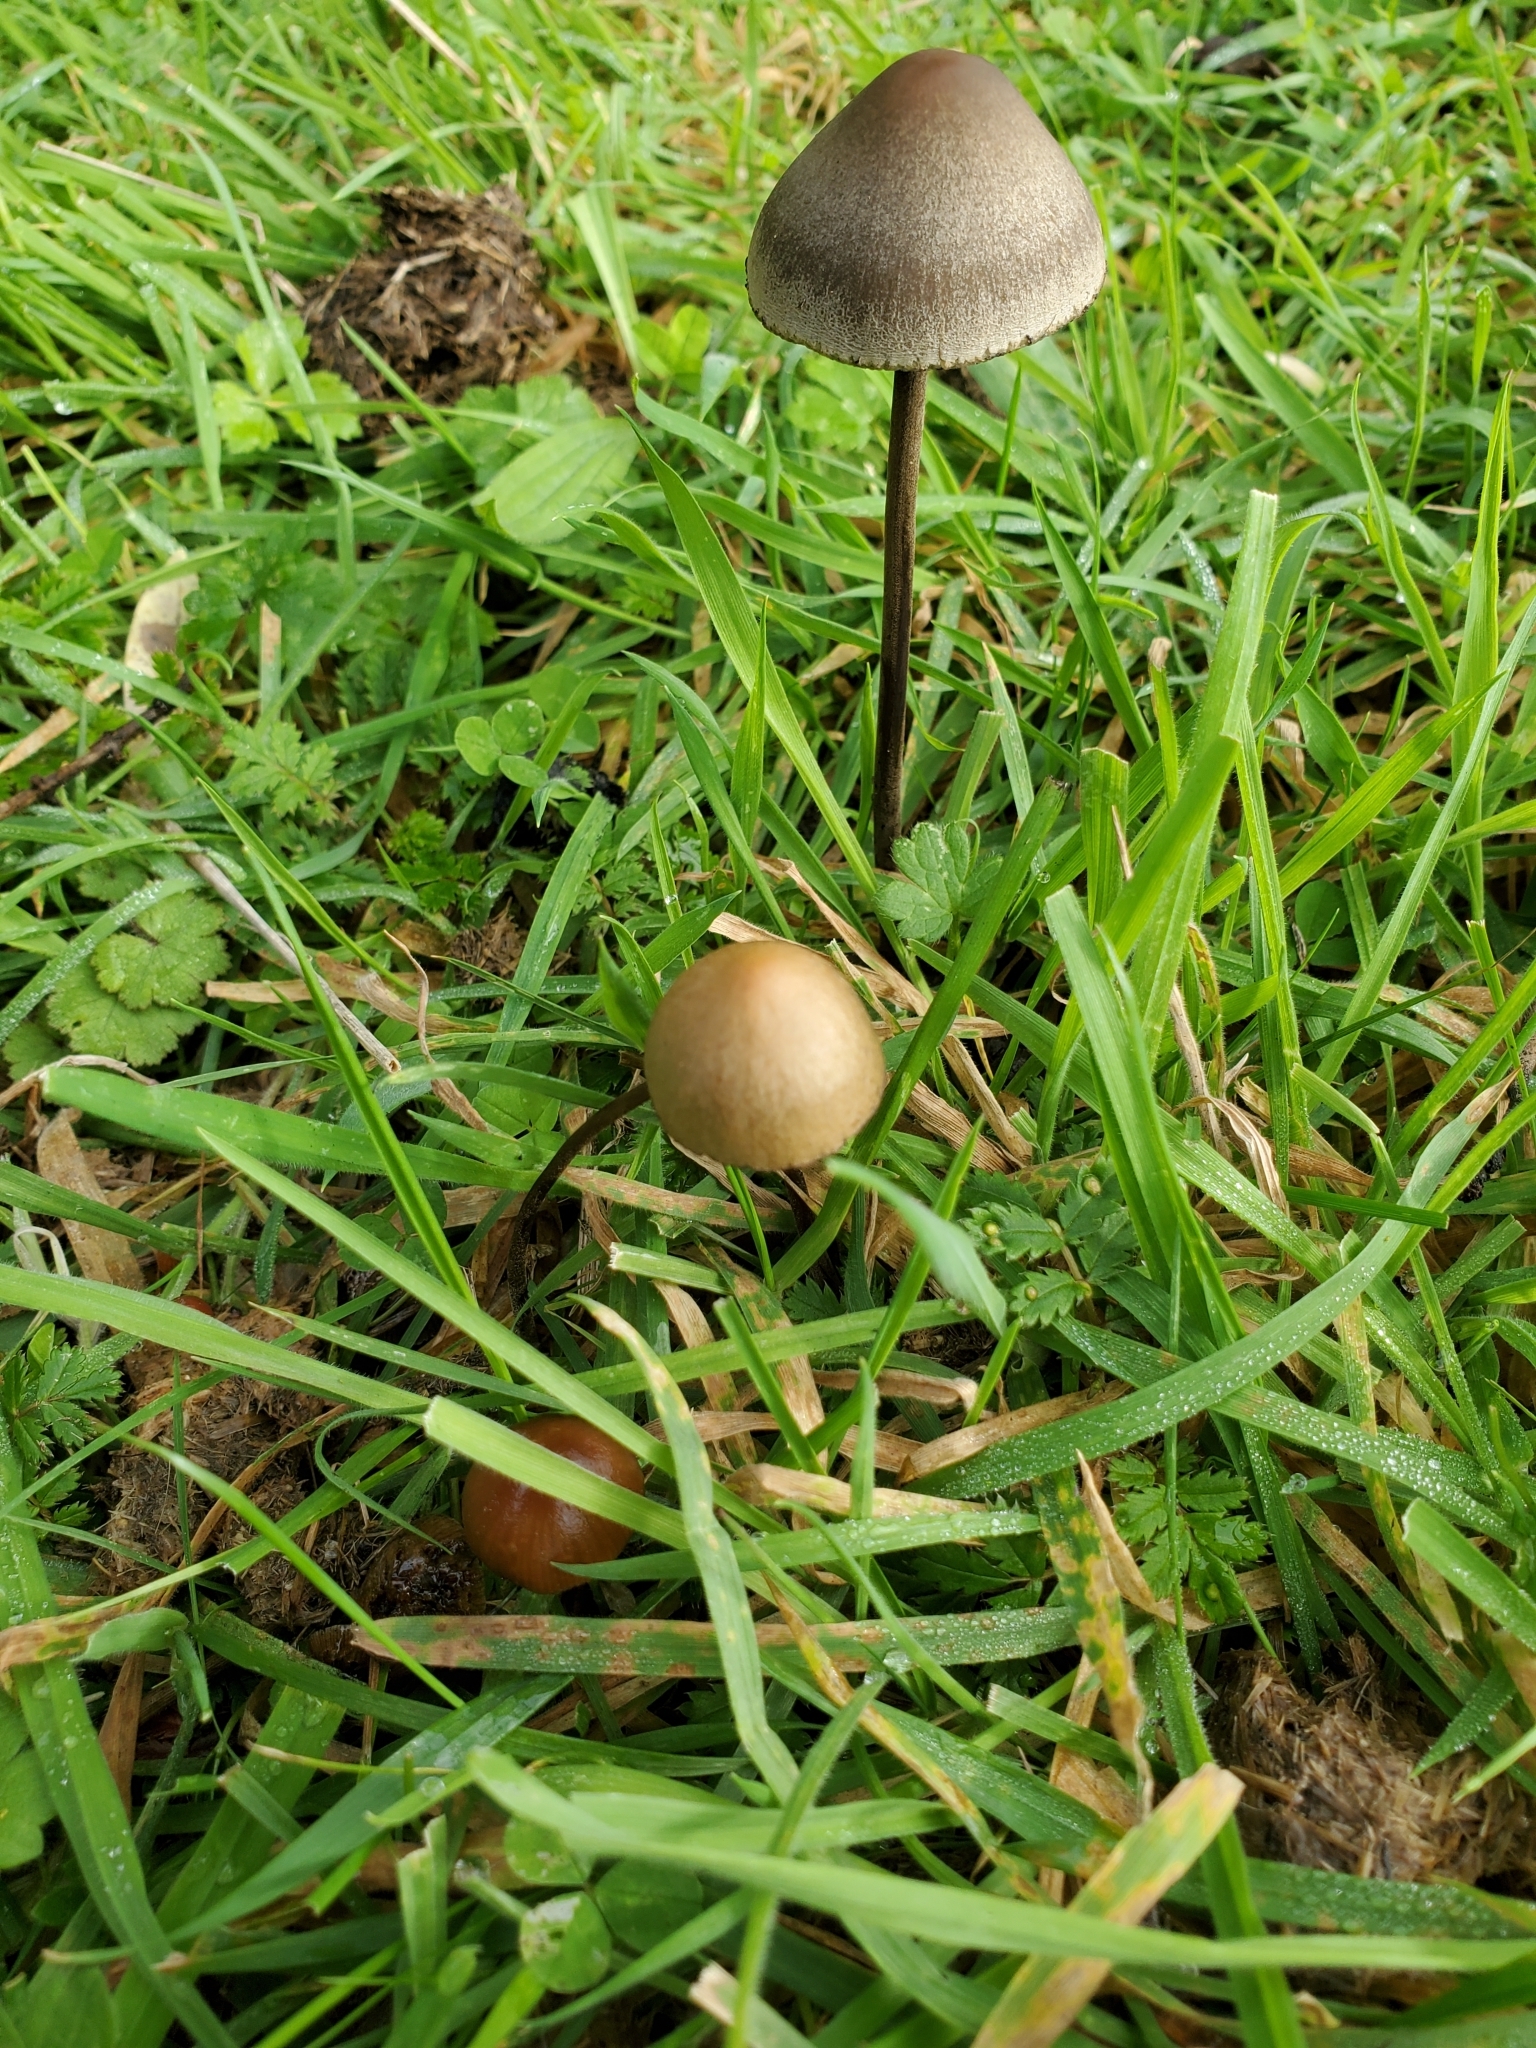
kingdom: Fungi
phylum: Basidiomycota
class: Agaricomycetes
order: Agaricales
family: Bolbitiaceae
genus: Panaeolus
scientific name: Panaeolus papilionaceus
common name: Petticoat mottlegill
